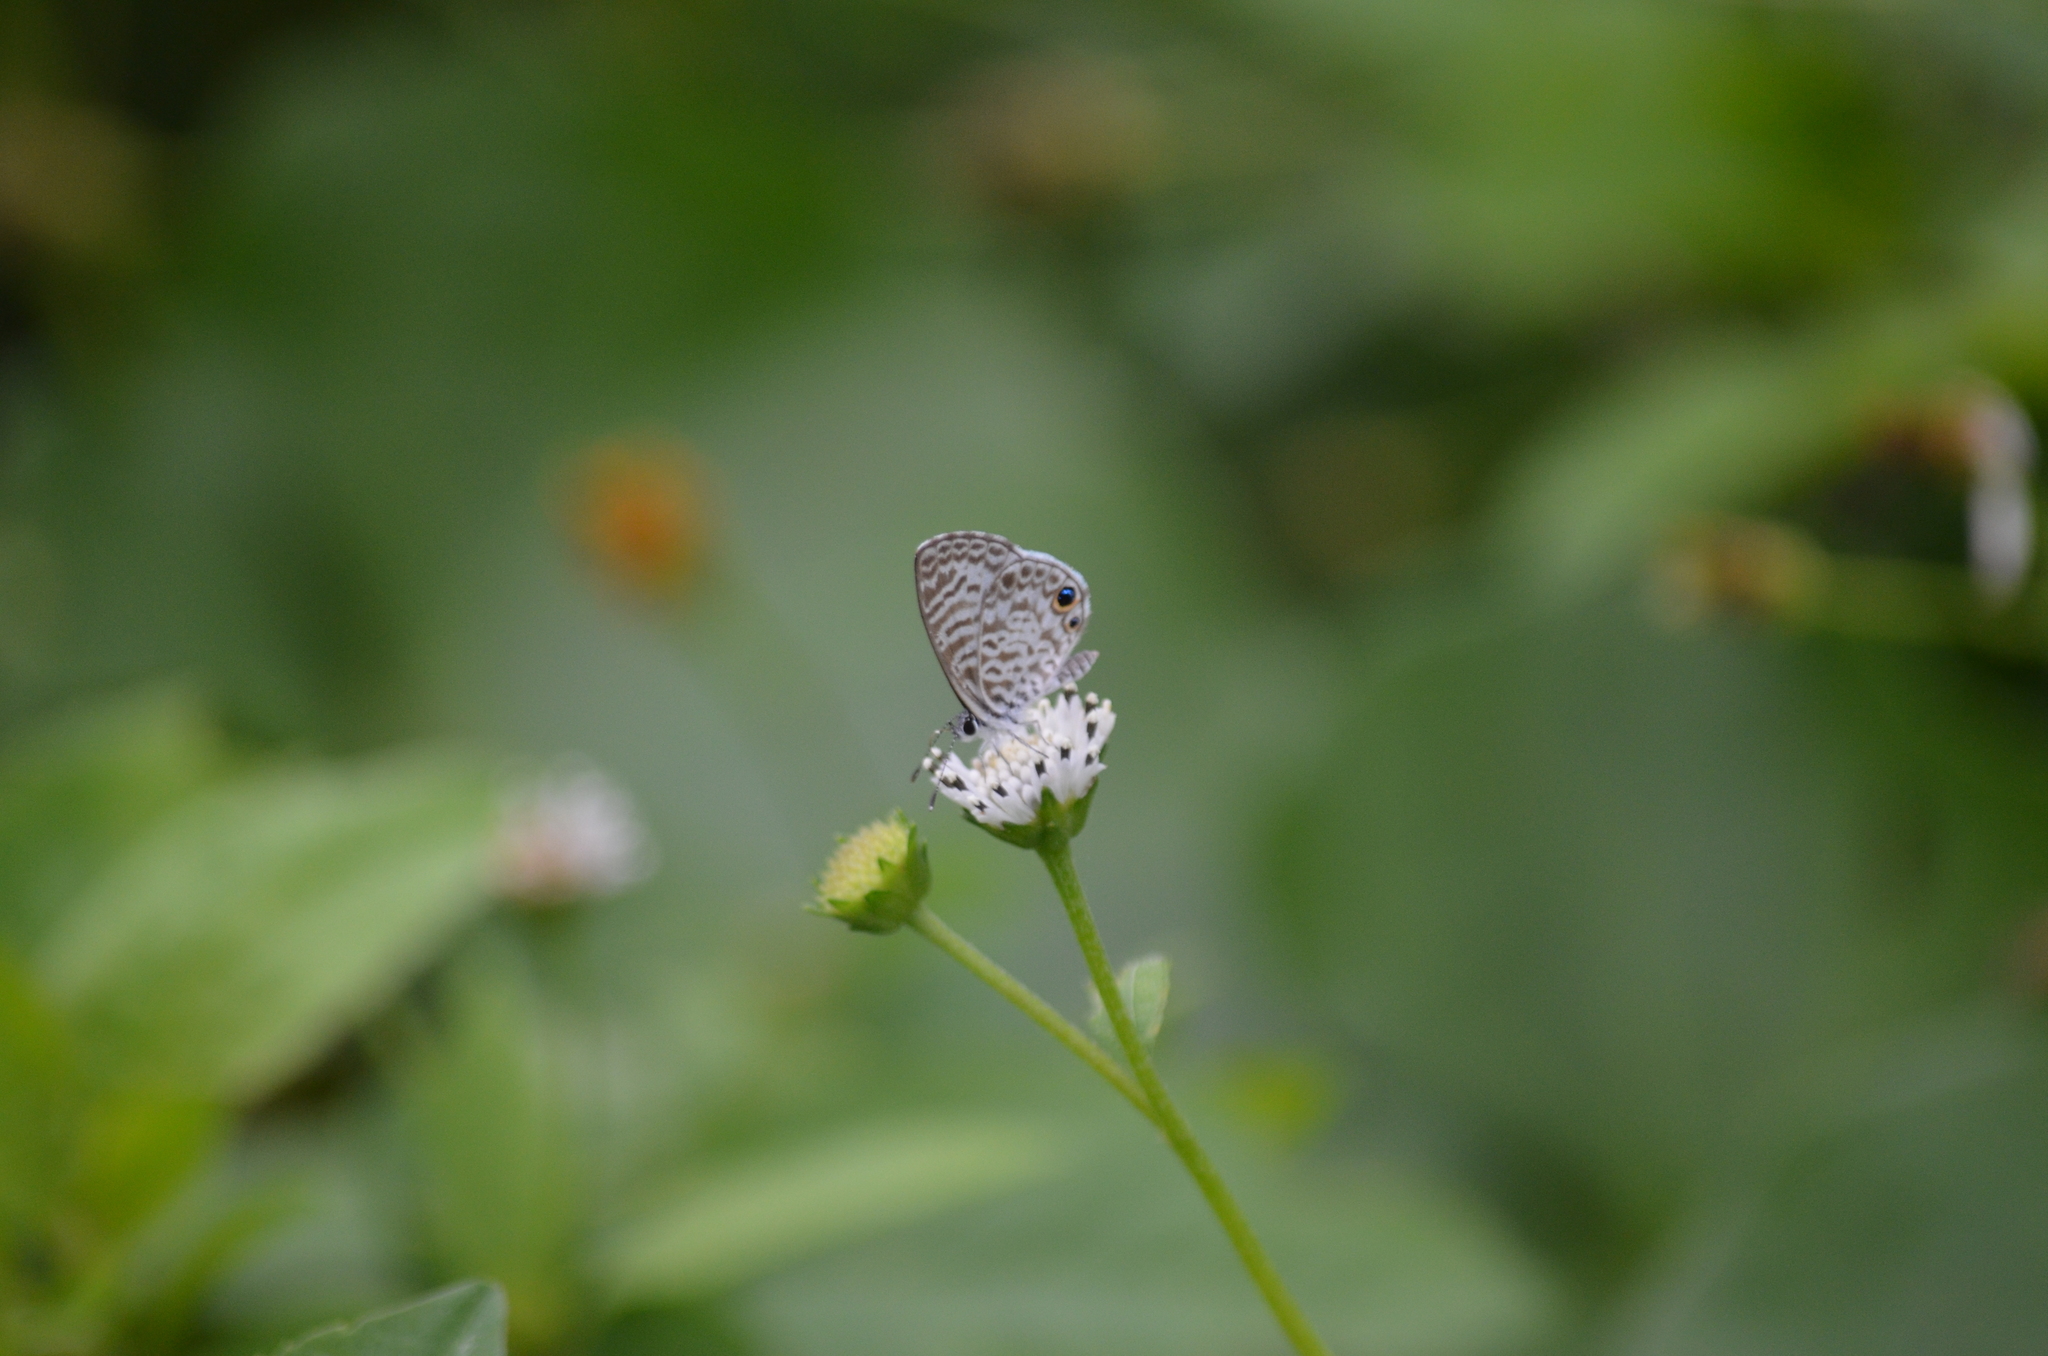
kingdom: Animalia
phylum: Arthropoda
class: Insecta
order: Lepidoptera
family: Lycaenidae
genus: Leptotes
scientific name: Leptotes cassius
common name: Cassius blue
